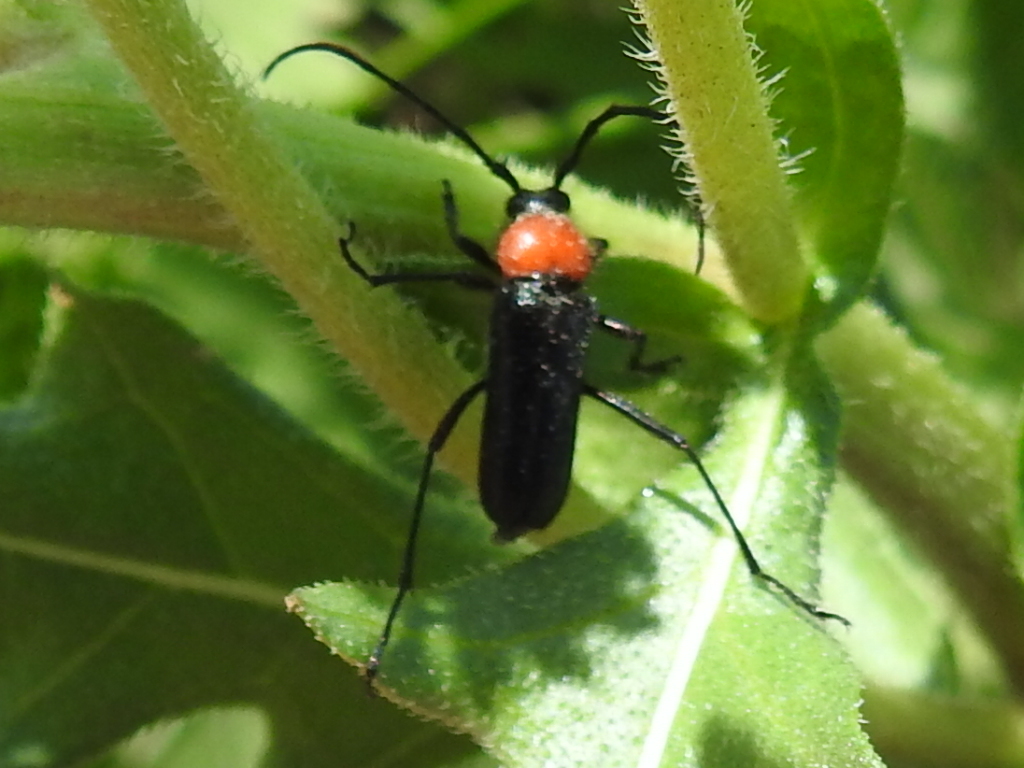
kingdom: Animalia
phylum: Arthropoda
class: Insecta
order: Coleoptera
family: Cerambycidae
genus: Batyle
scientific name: Batyle ignicollis
